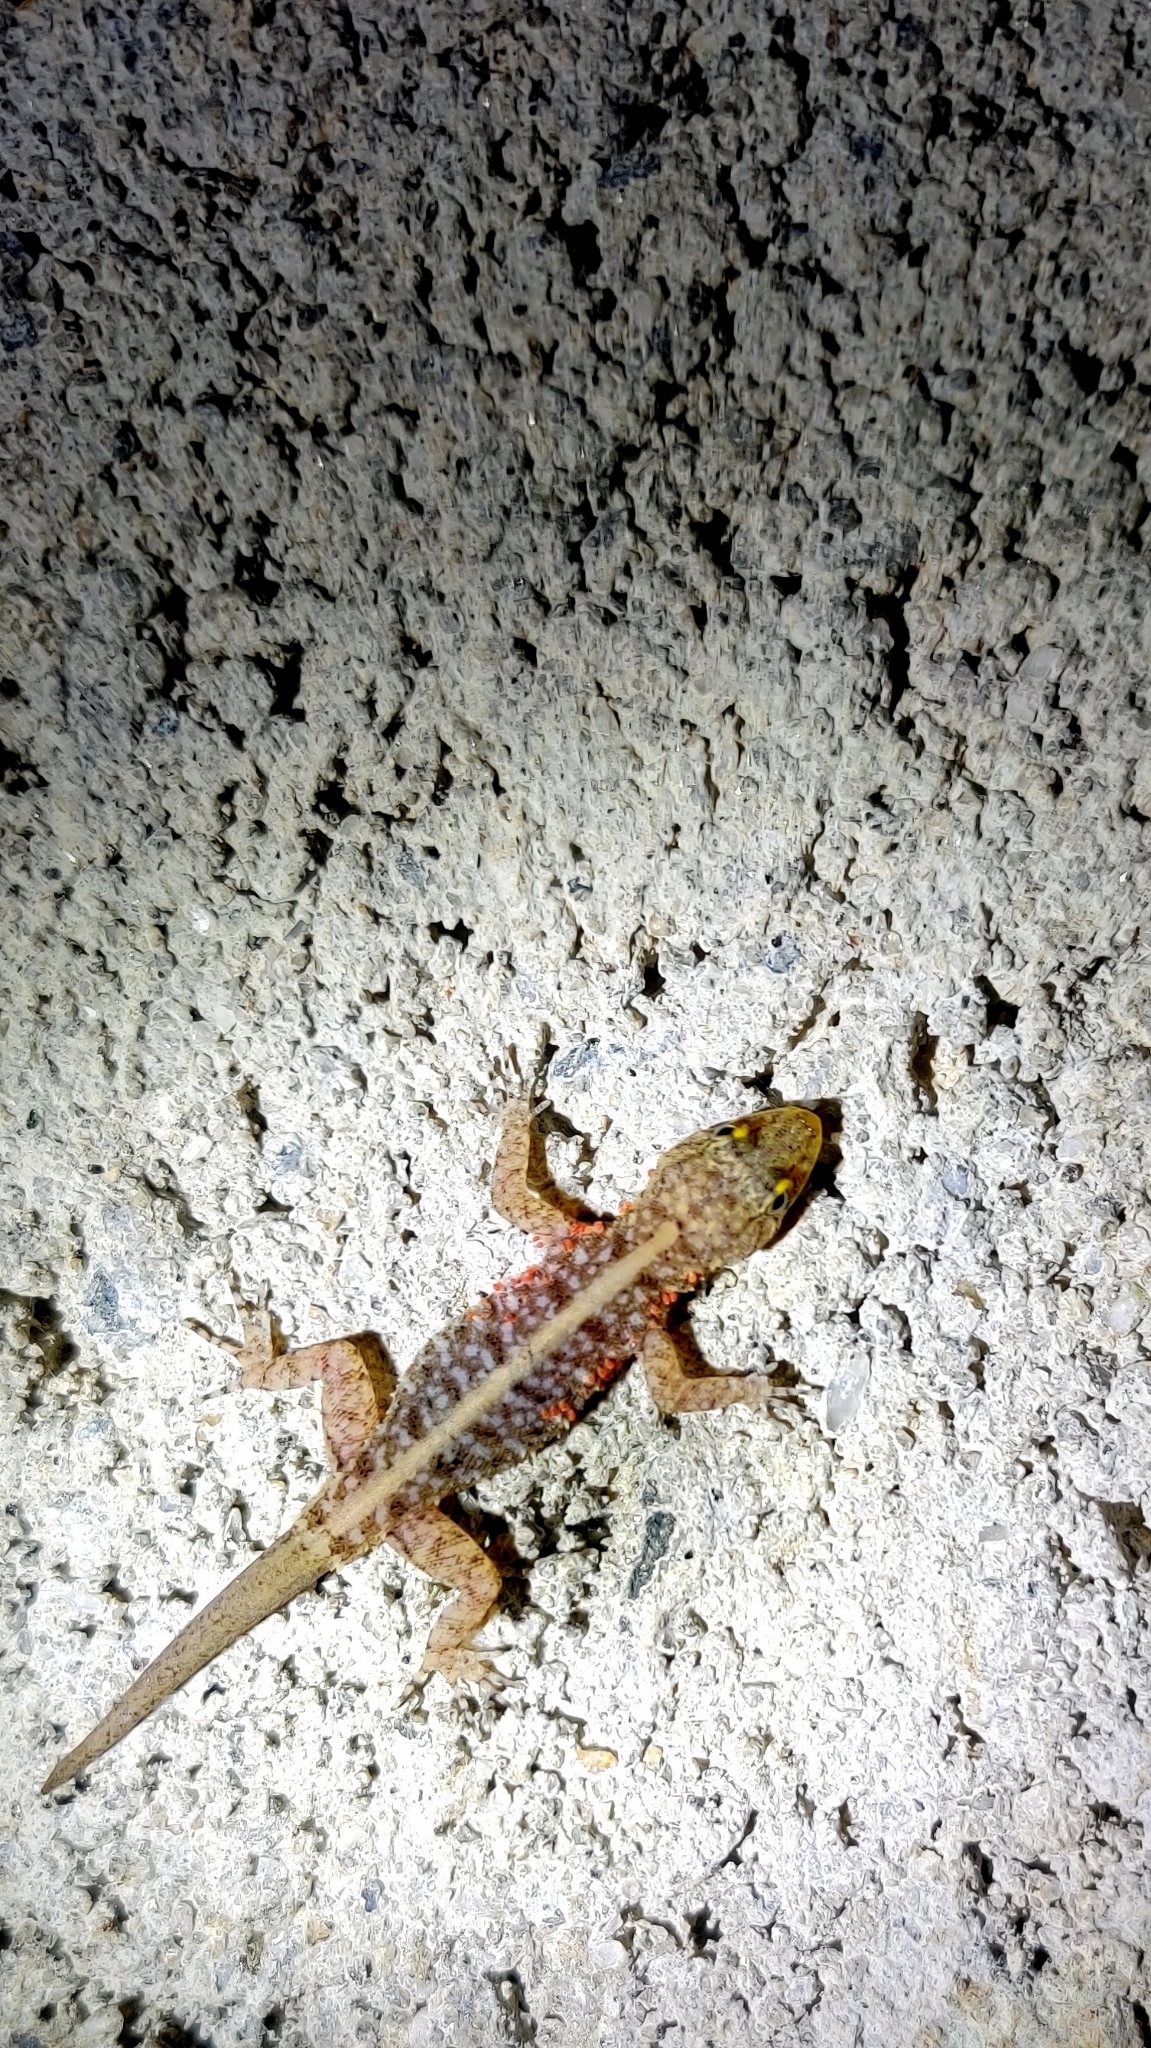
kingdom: Animalia
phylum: Chordata
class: Squamata
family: Gekkonidae
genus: Cnemaspis
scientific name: Cnemaspis mysoriensis
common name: Mysore day gecko
